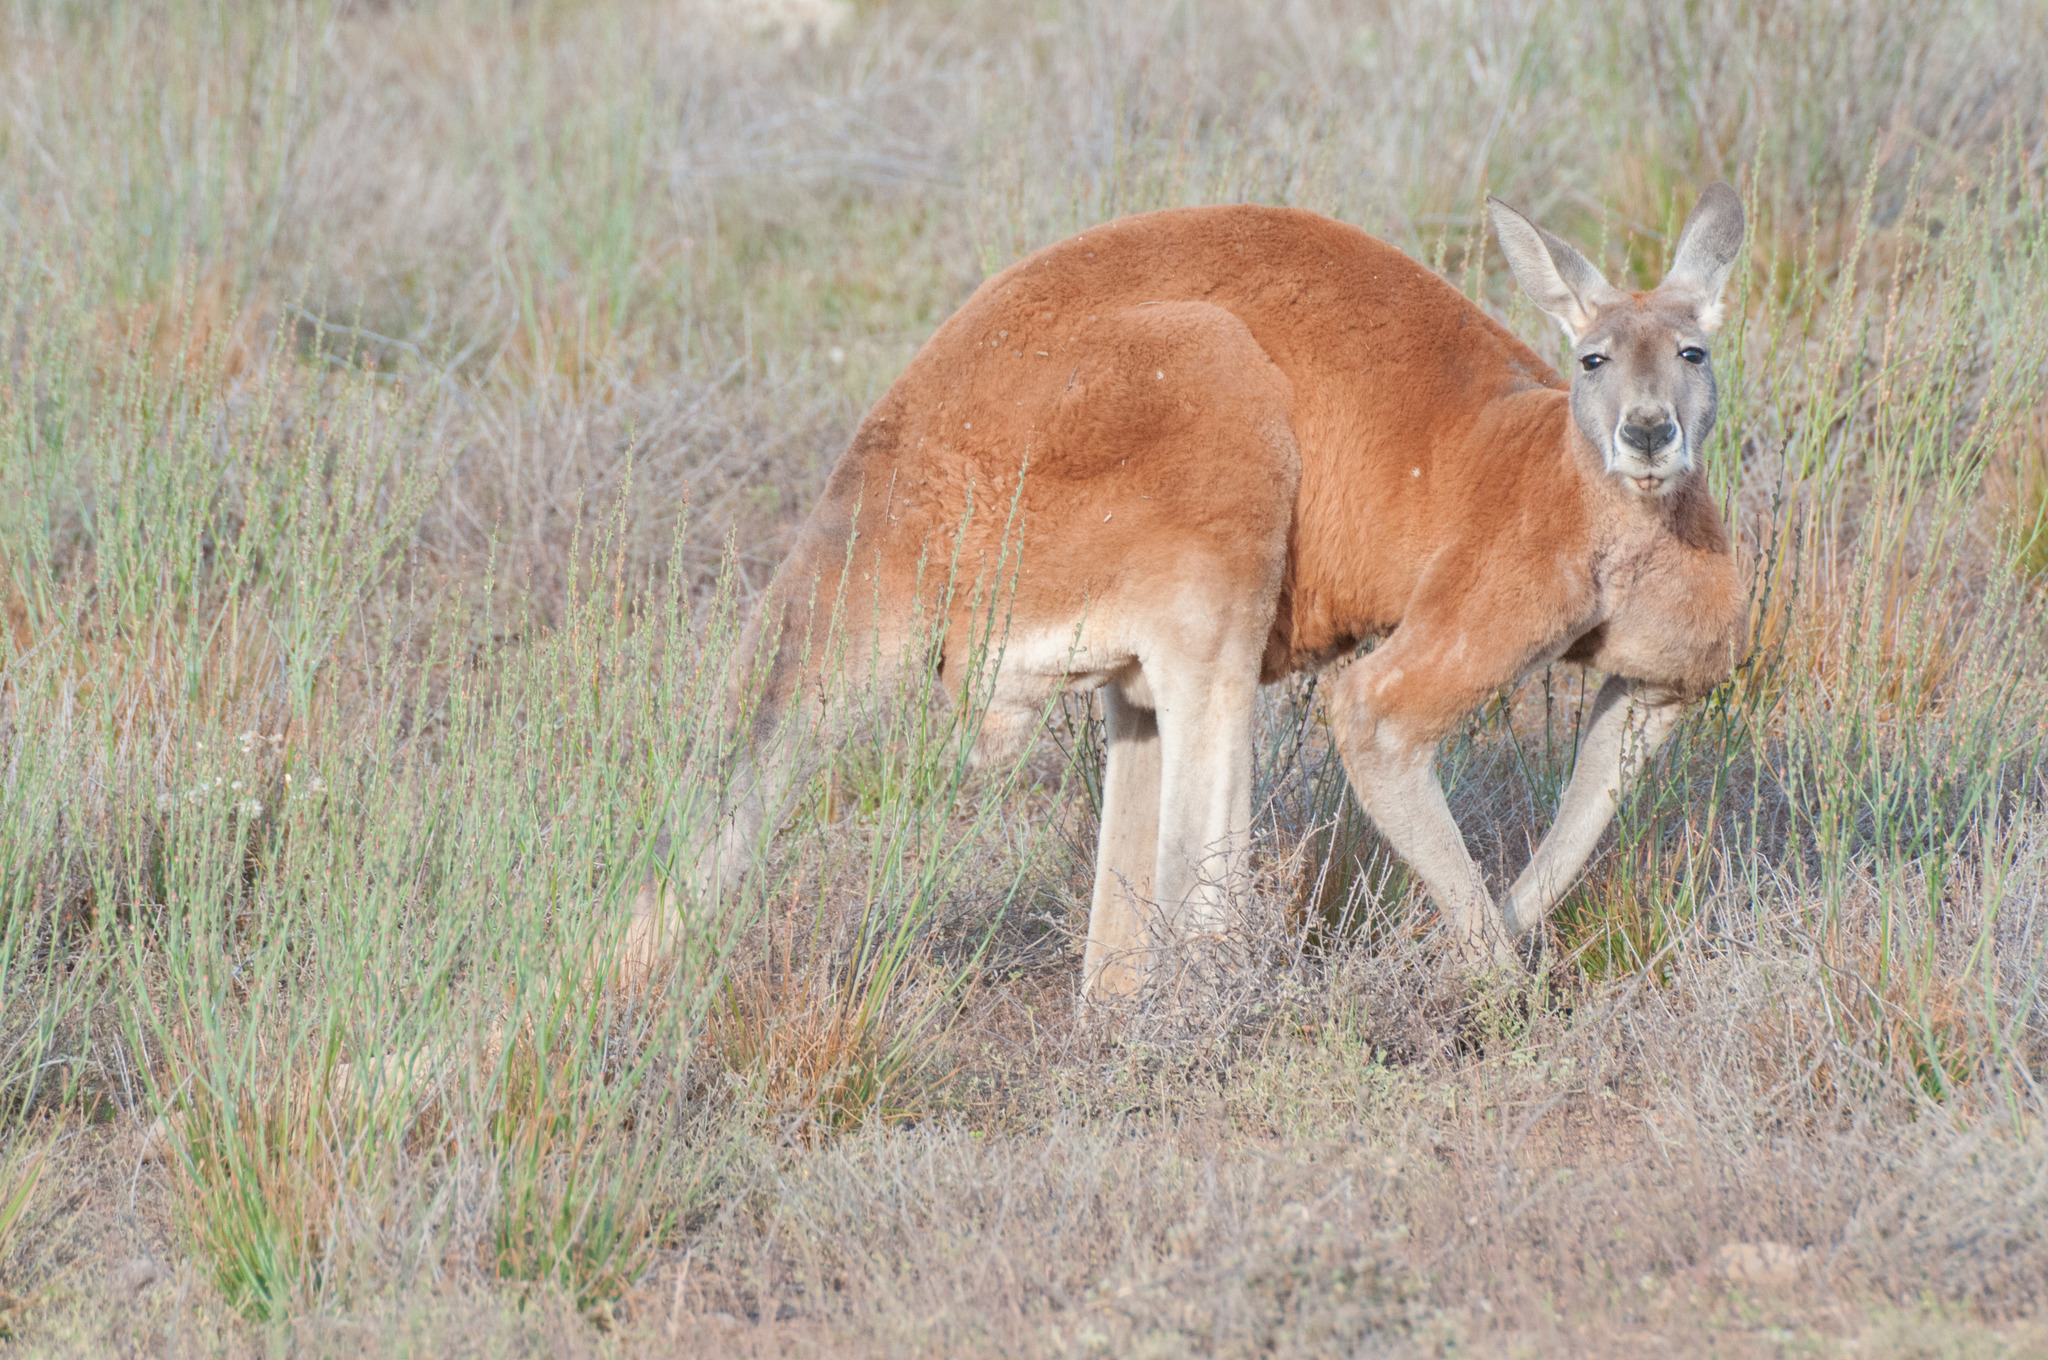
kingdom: Animalia
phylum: Chordata
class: Mammalia
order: Diprotodontia
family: Macropodidae
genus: Macropus
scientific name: Macropus rufus
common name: Red kangaroo
